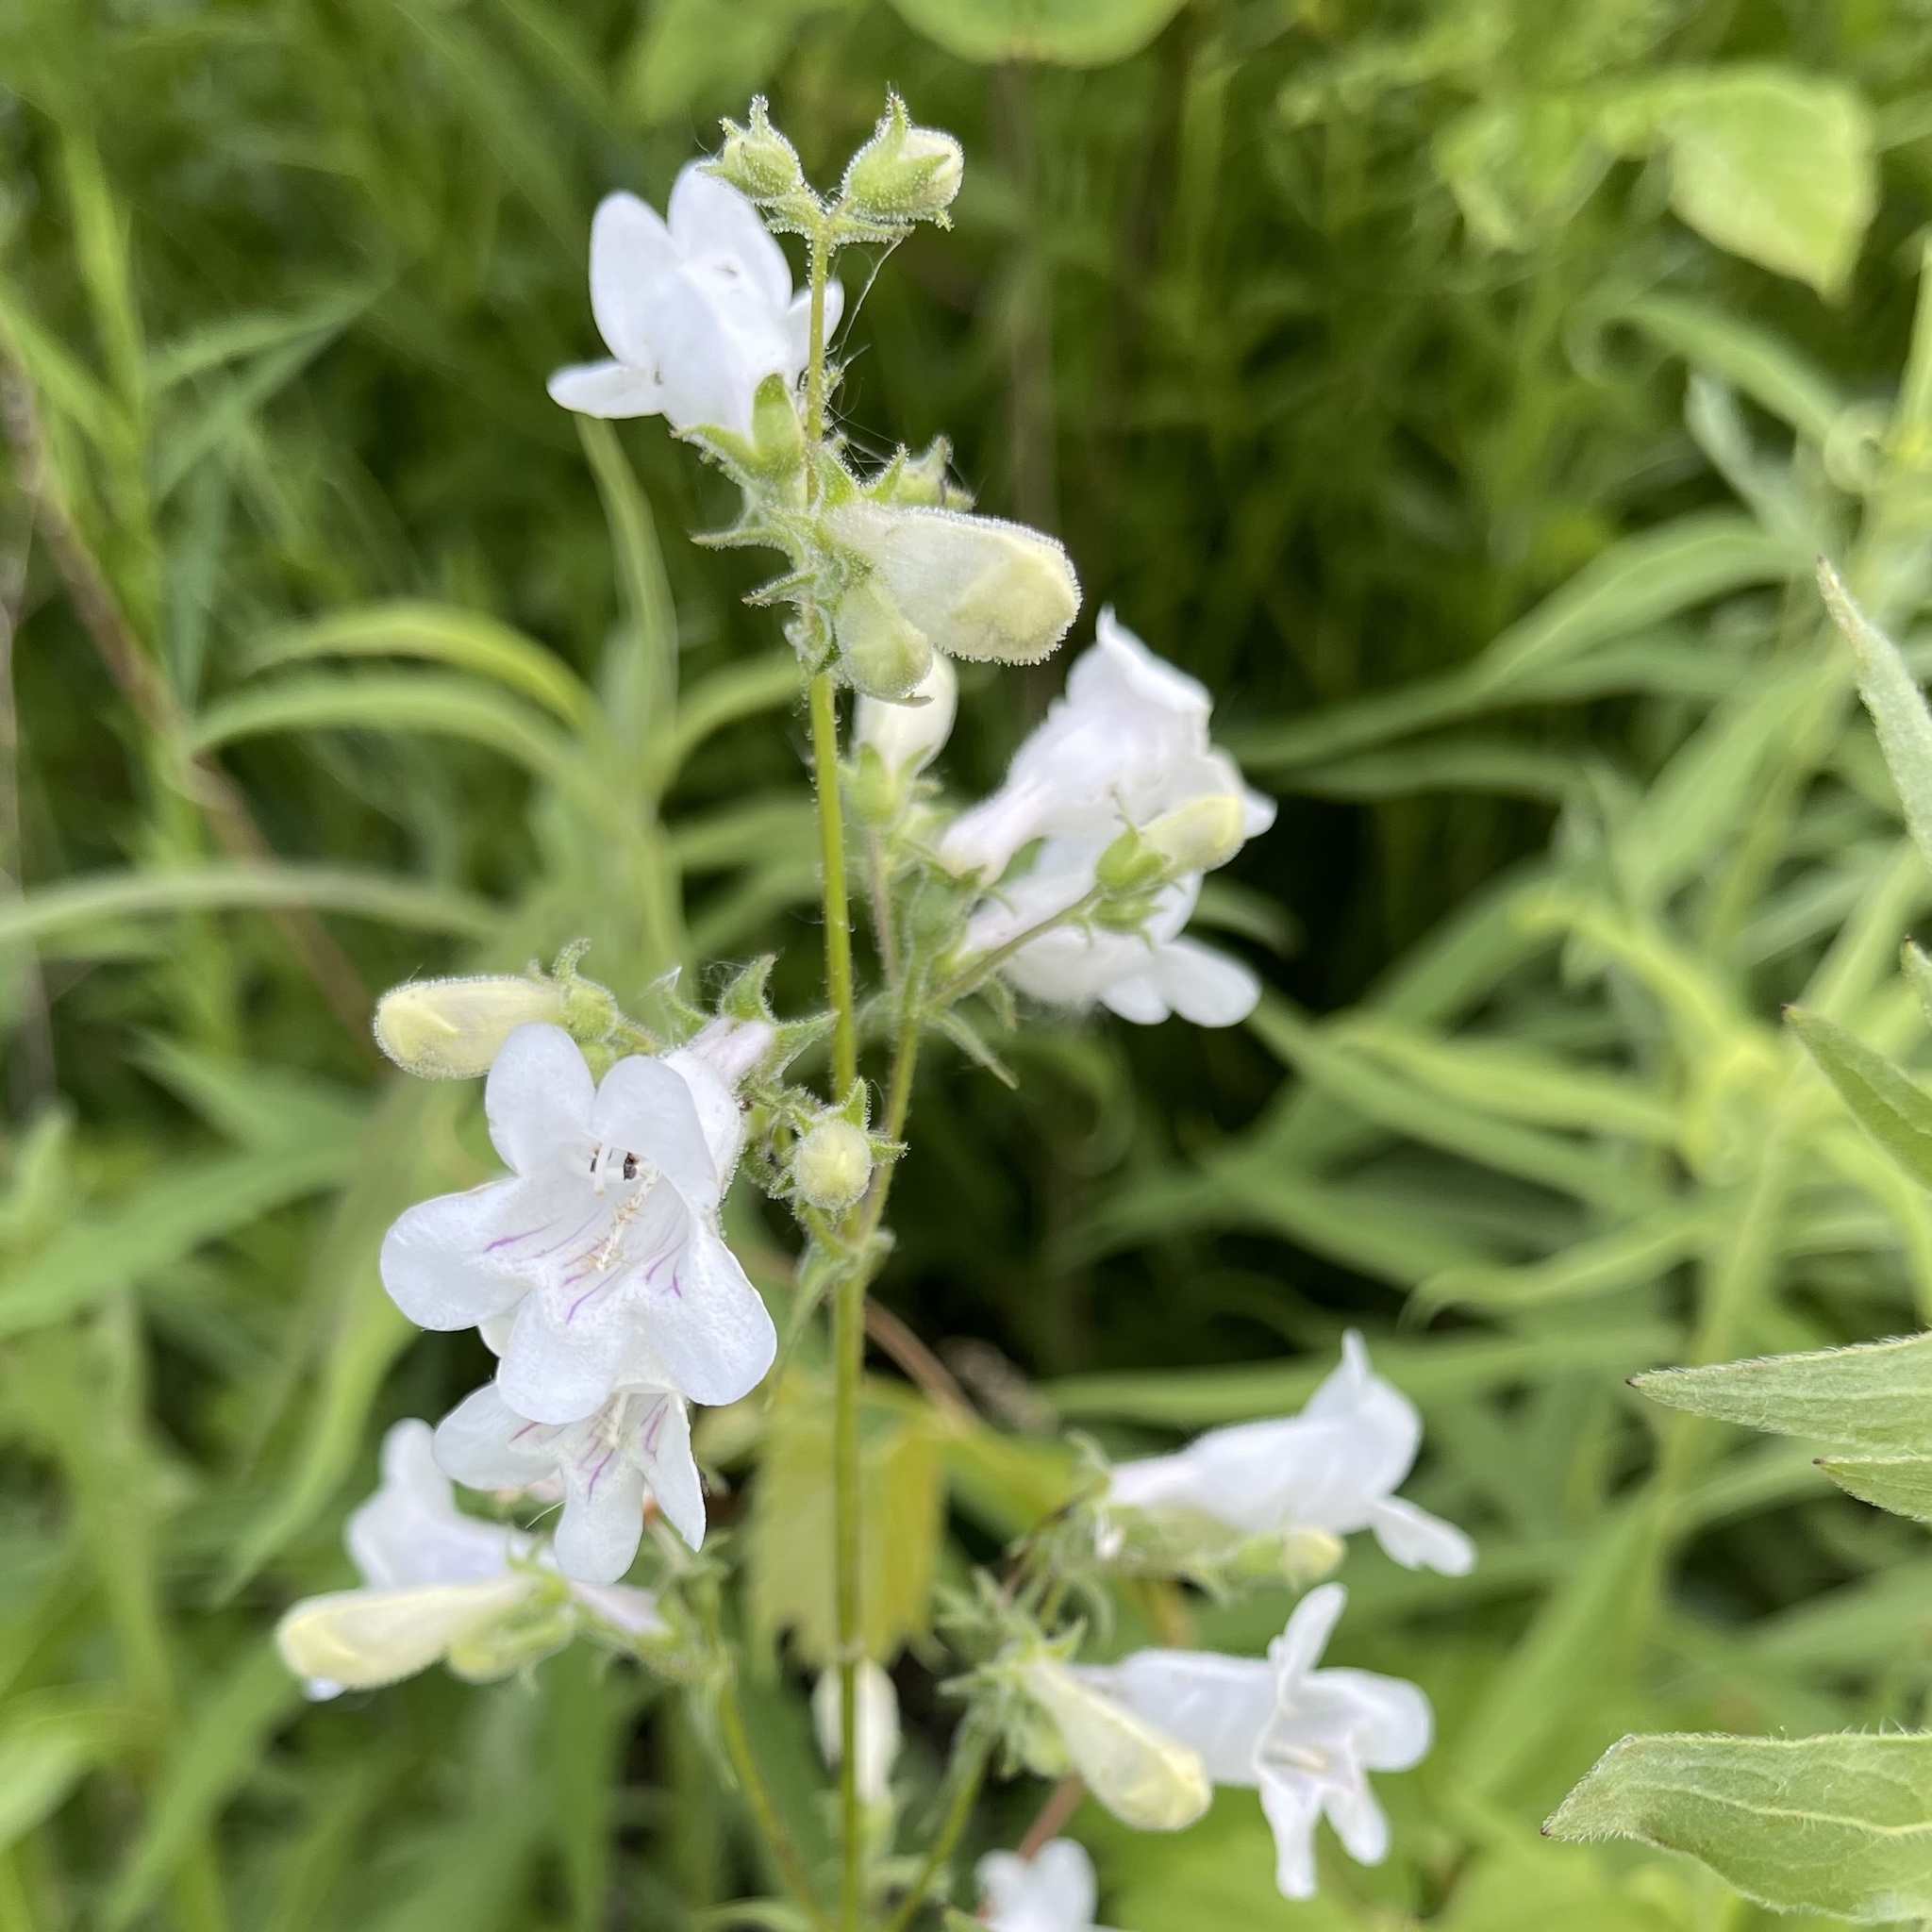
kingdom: Plantae
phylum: Tracheophyta
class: Magnoliopsida
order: Lamiales
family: Plantaginaceae
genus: Penstemon
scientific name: Penstemon digitalis
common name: Foxglove beardtongue
